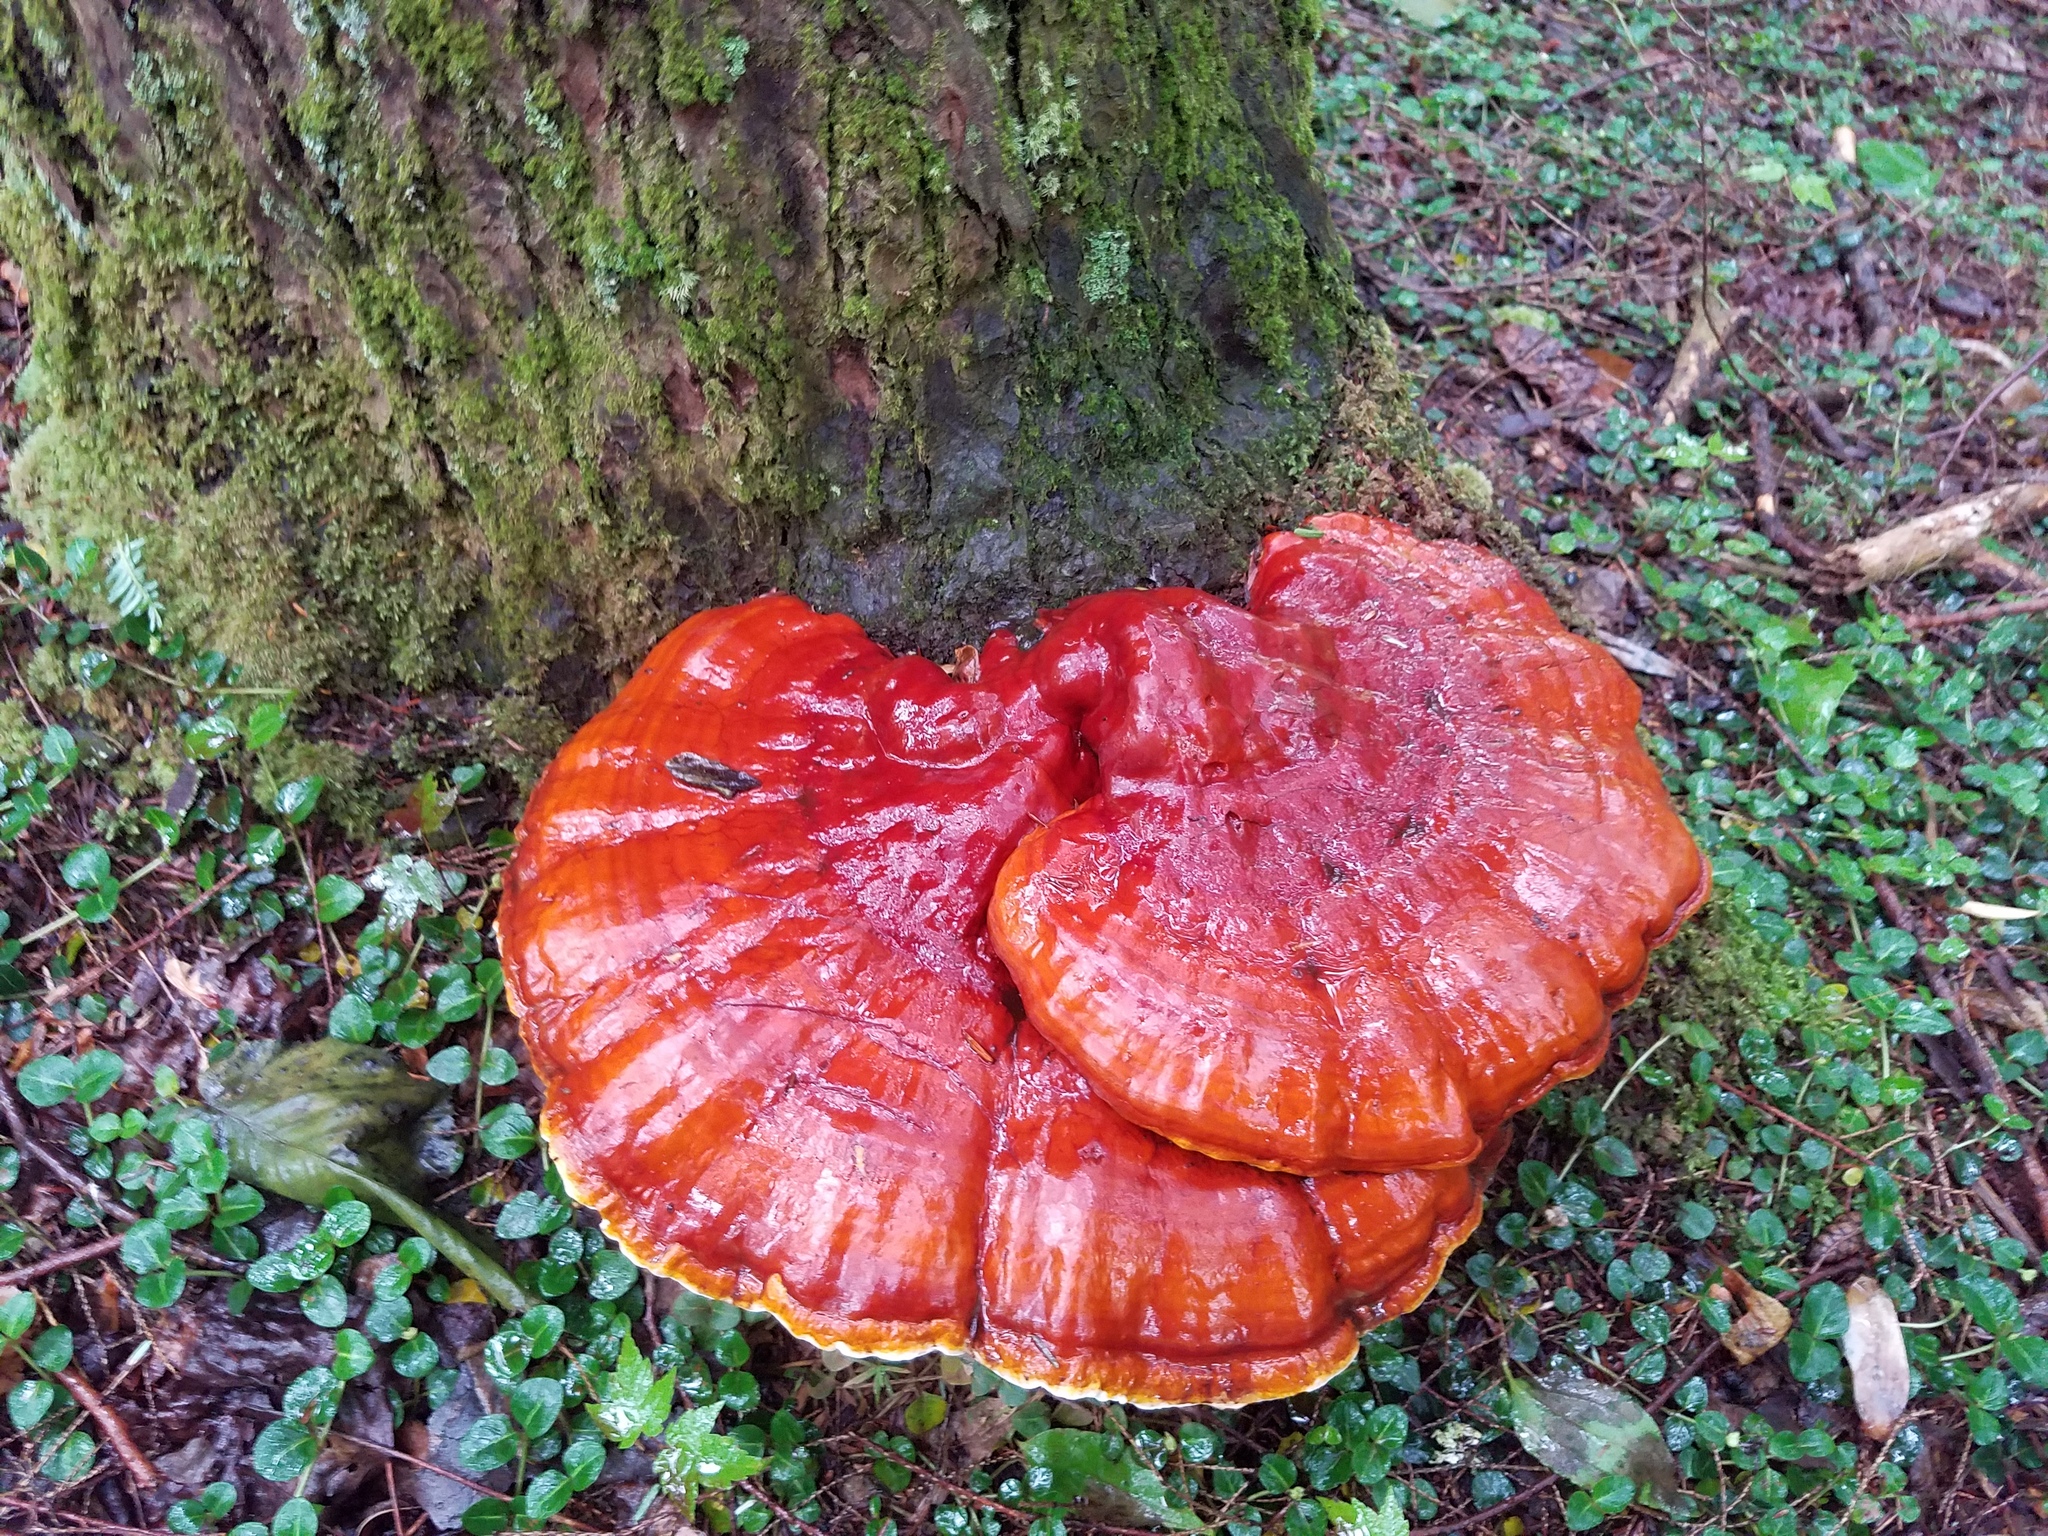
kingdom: Fungi
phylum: Basidiomycota
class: Agaricomycetes
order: Polyporales
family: Polyporaceae
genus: Ganoderma
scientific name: Ganoderma tsugae
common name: Hemlock varnish shelf
